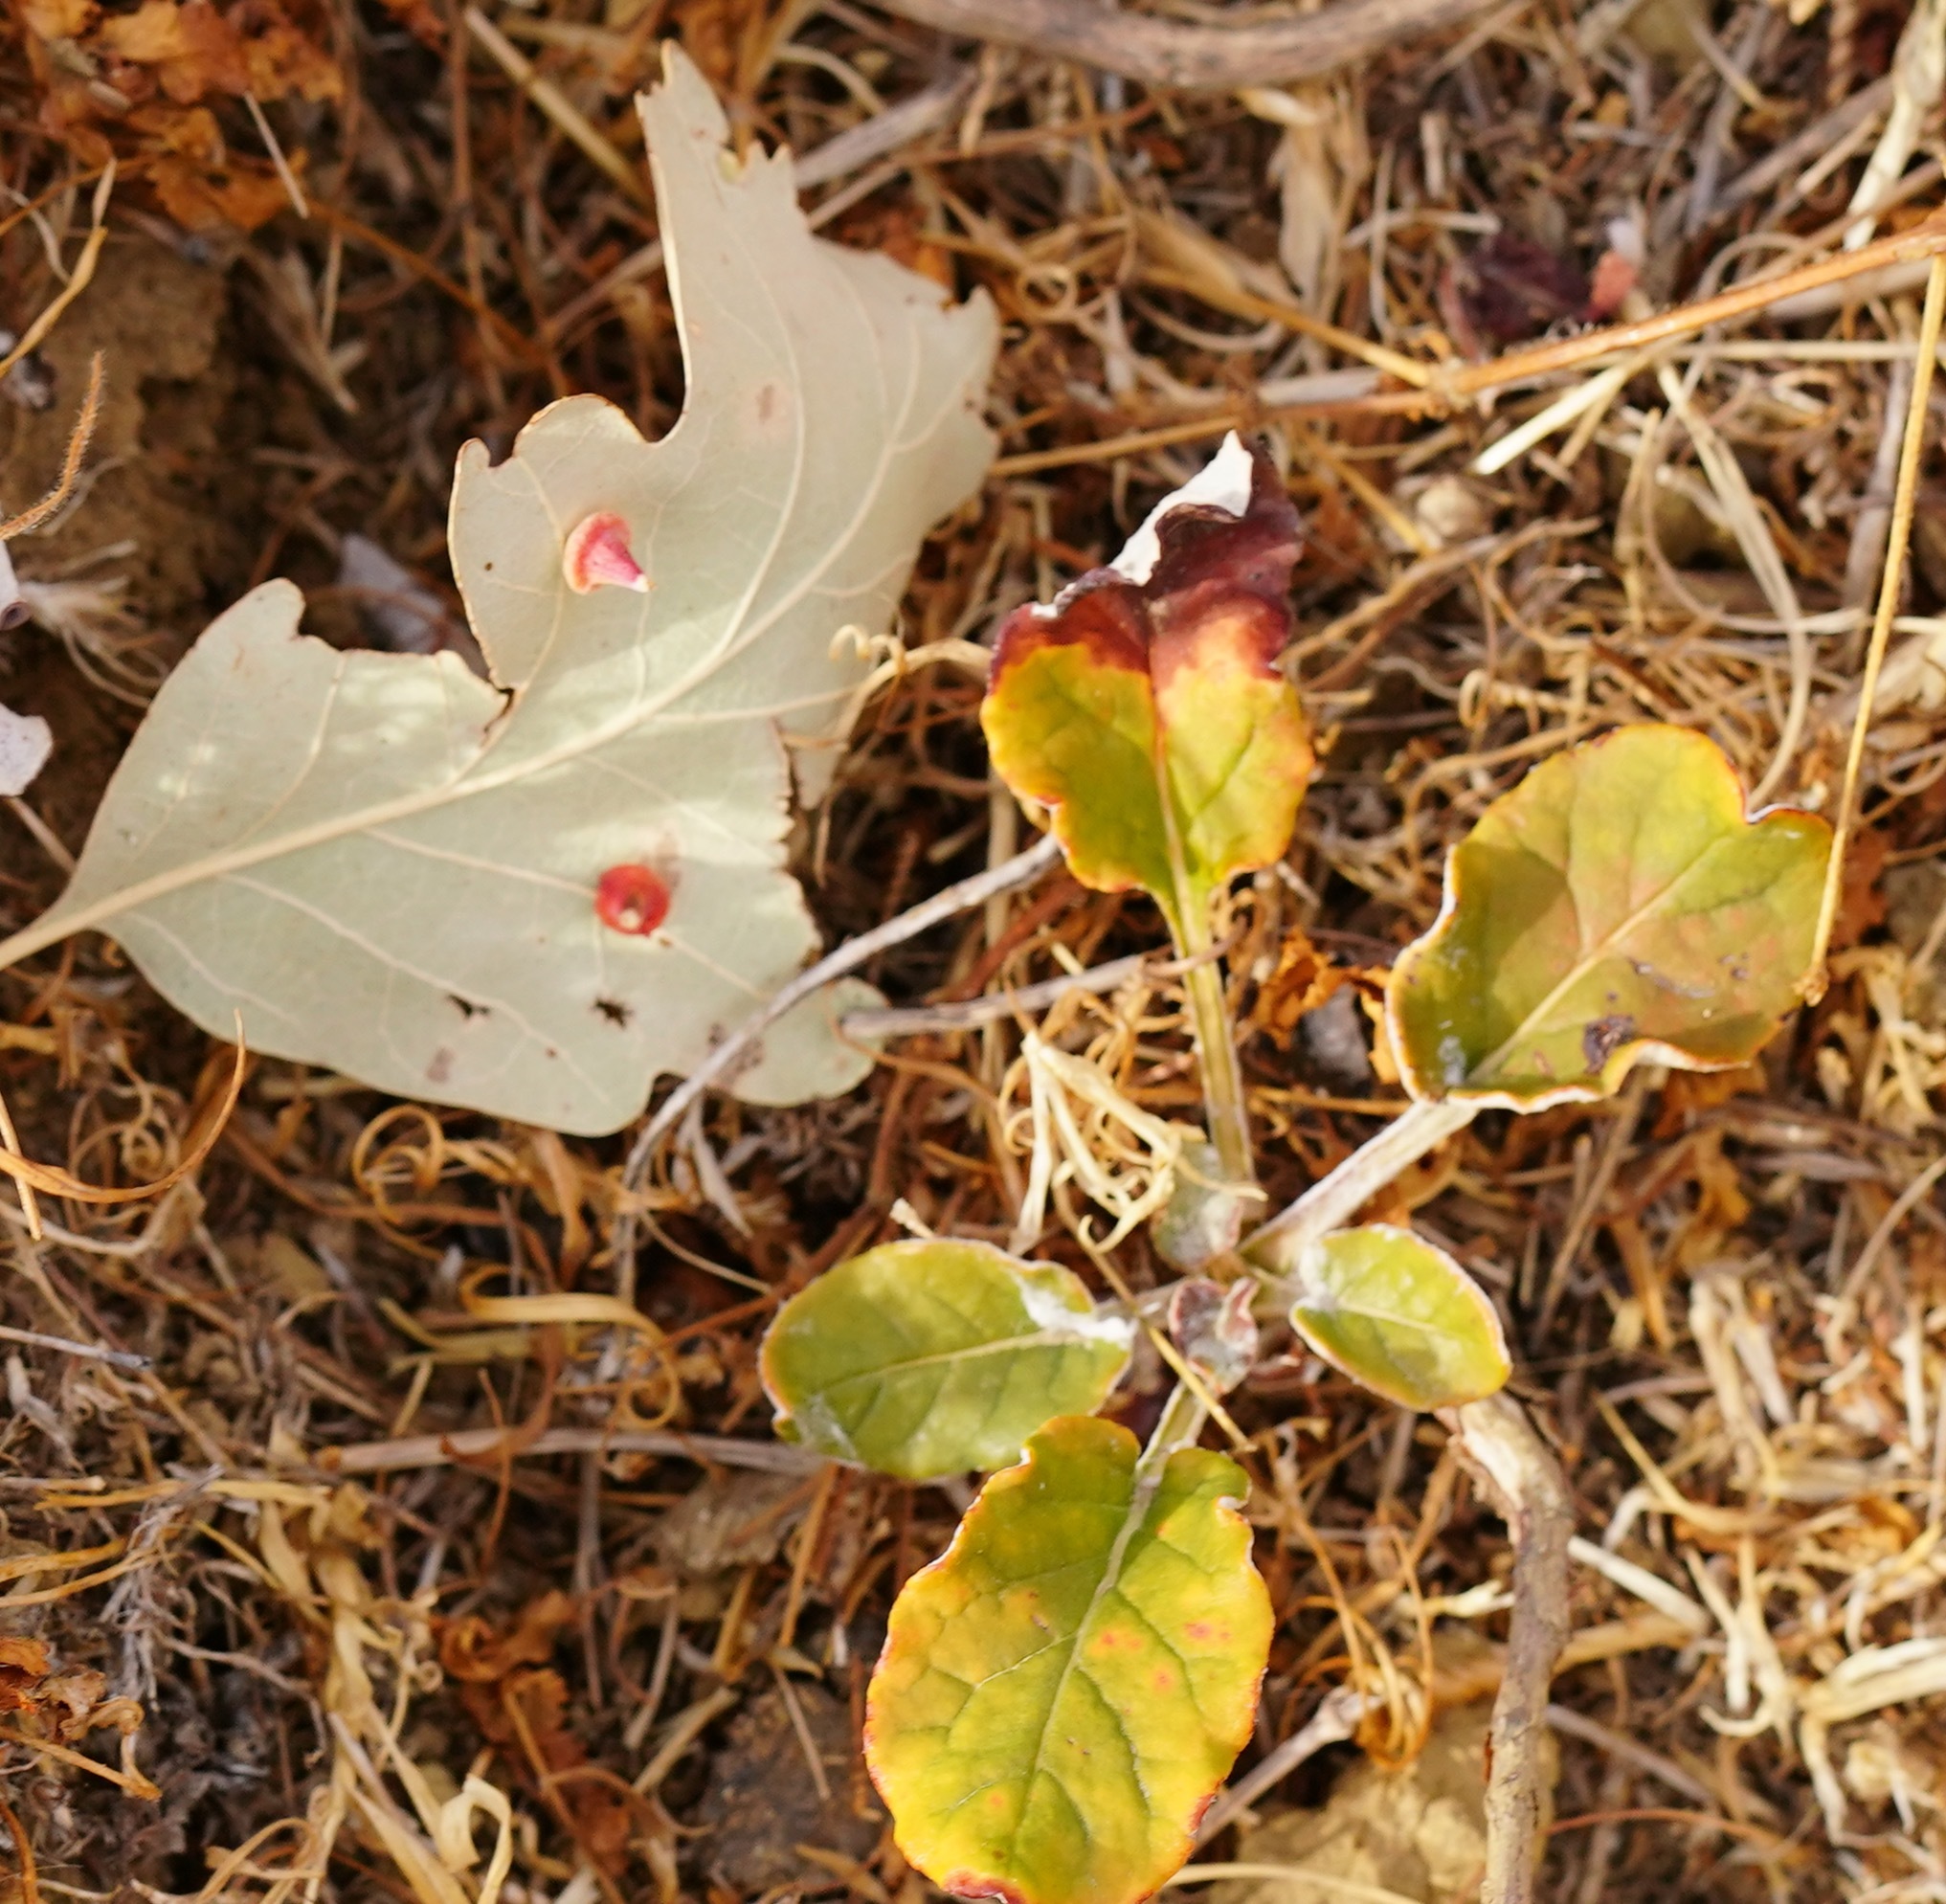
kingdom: Animalia
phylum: Arthropoda
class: Insecta
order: Hymenoptera
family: Cynipidae
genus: Andricus
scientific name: Andricus
